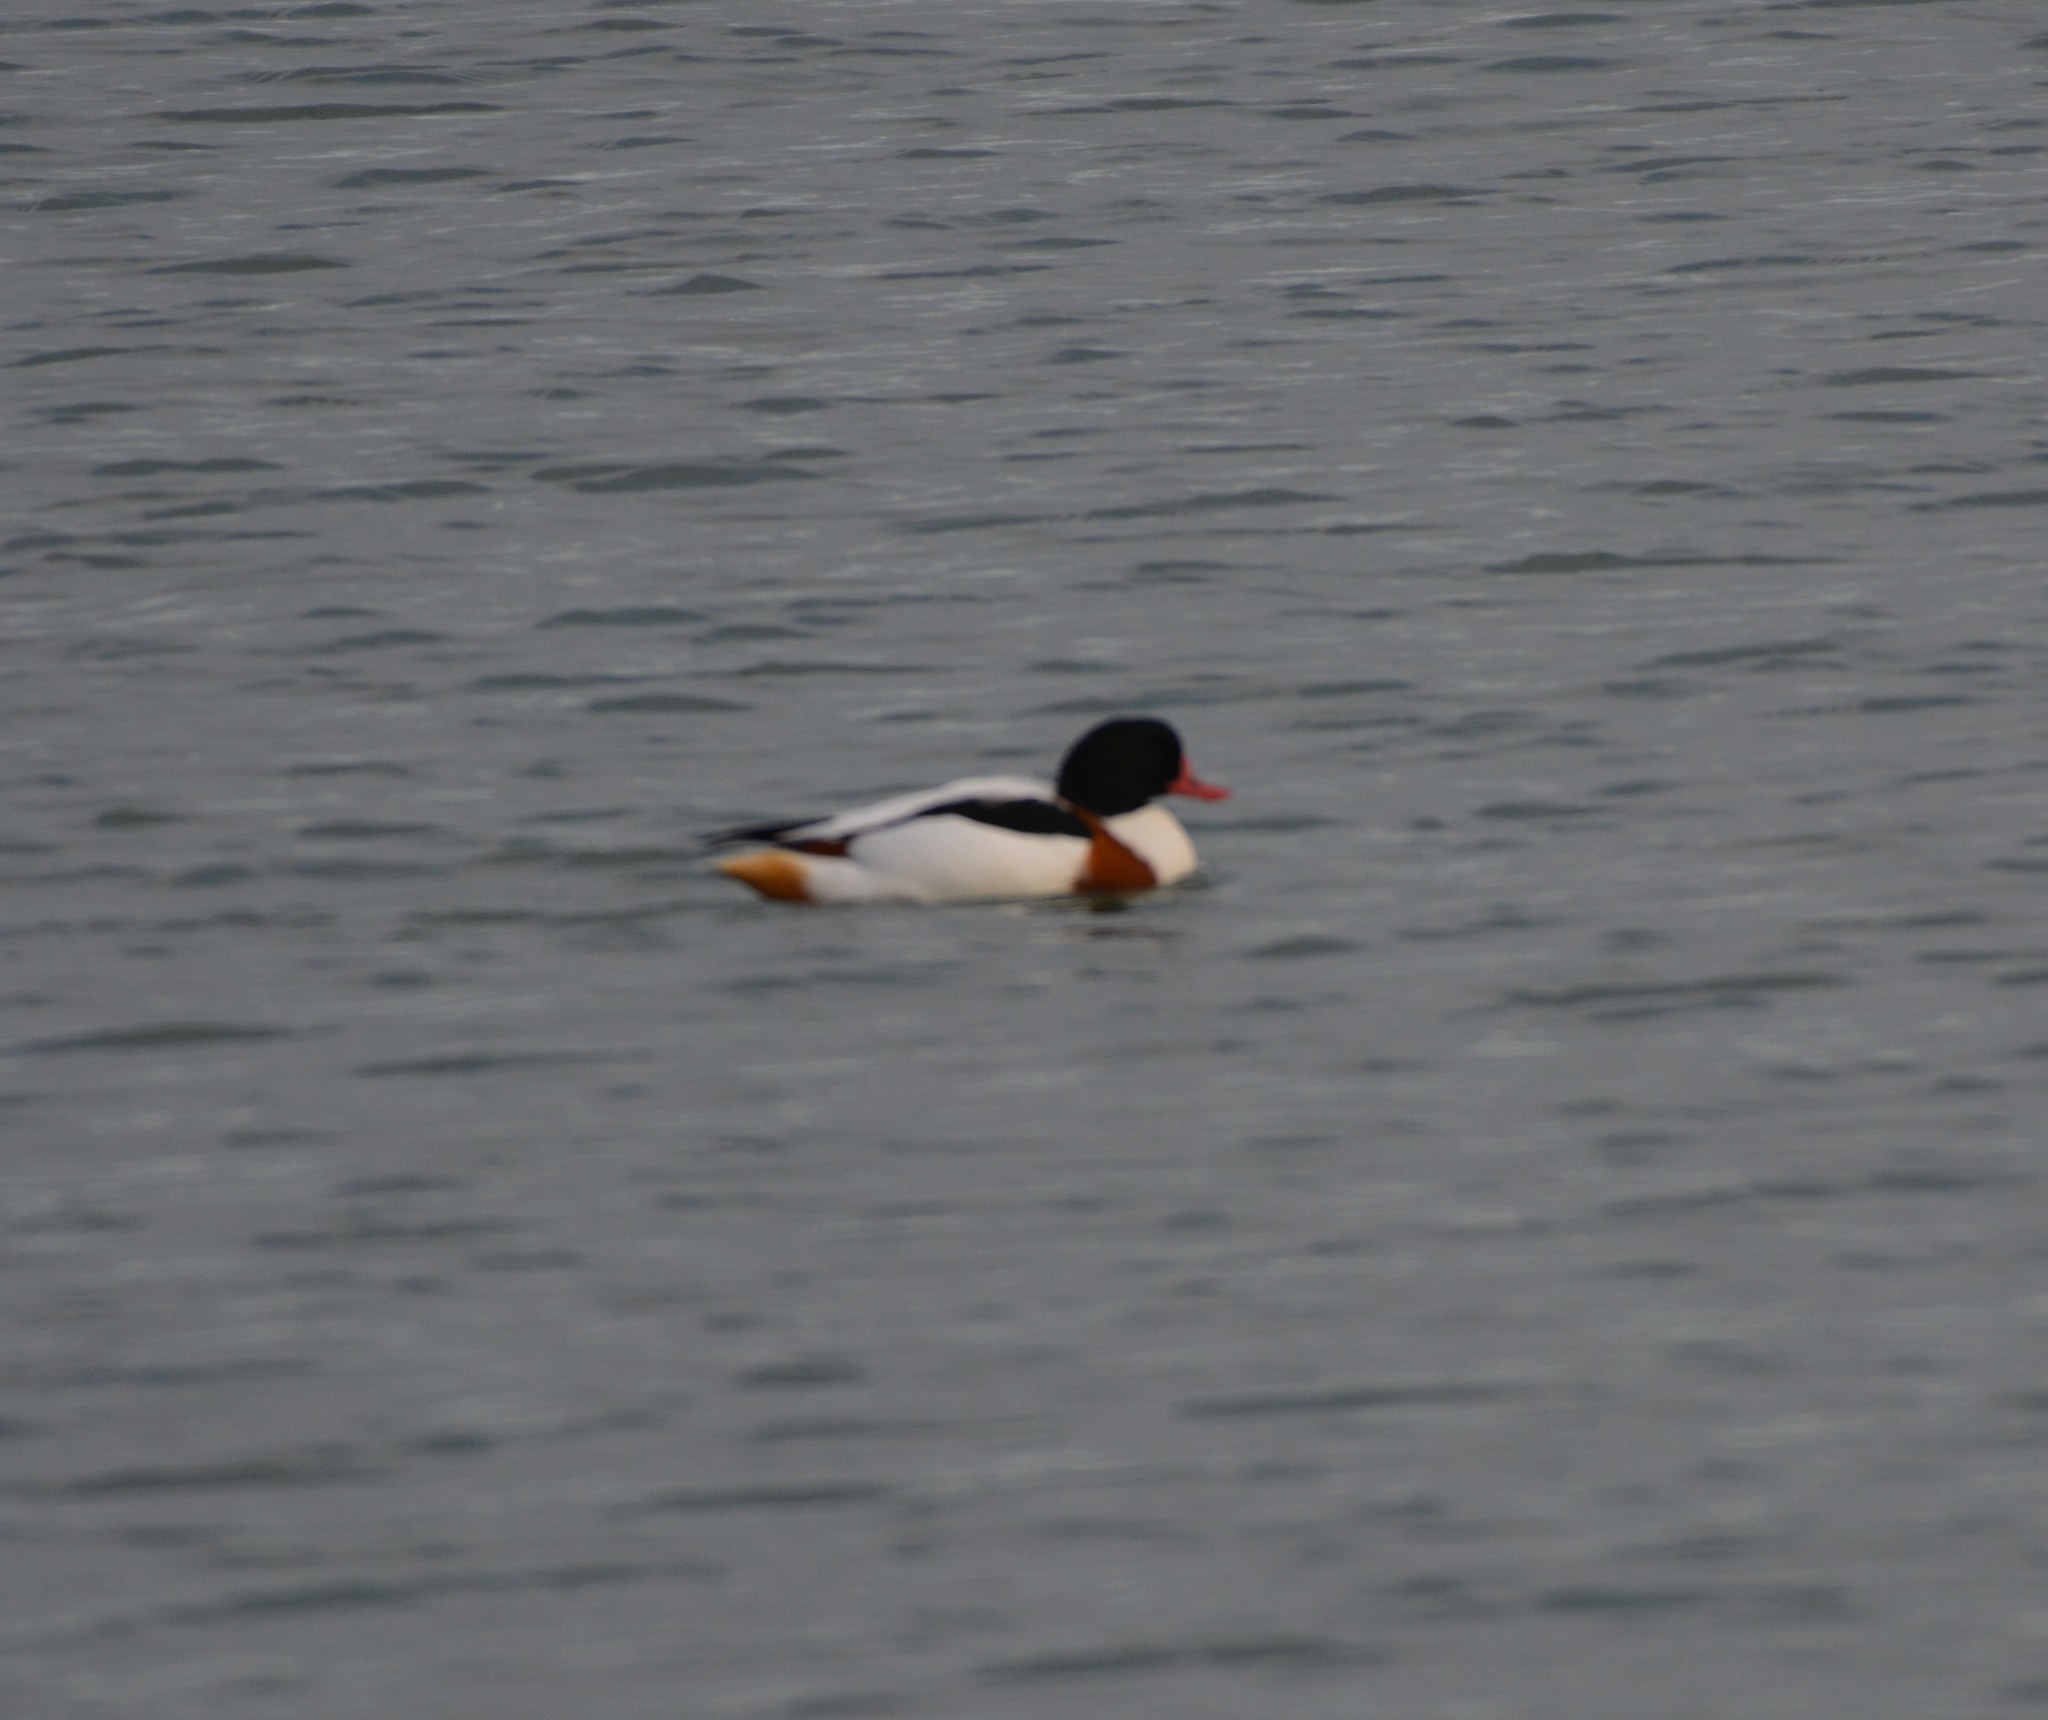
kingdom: Animalia
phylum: Chordata
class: Aves
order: Anseriformes
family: Anatidae
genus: Tadorna
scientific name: Tadorna tadorna
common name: Common shelduck
